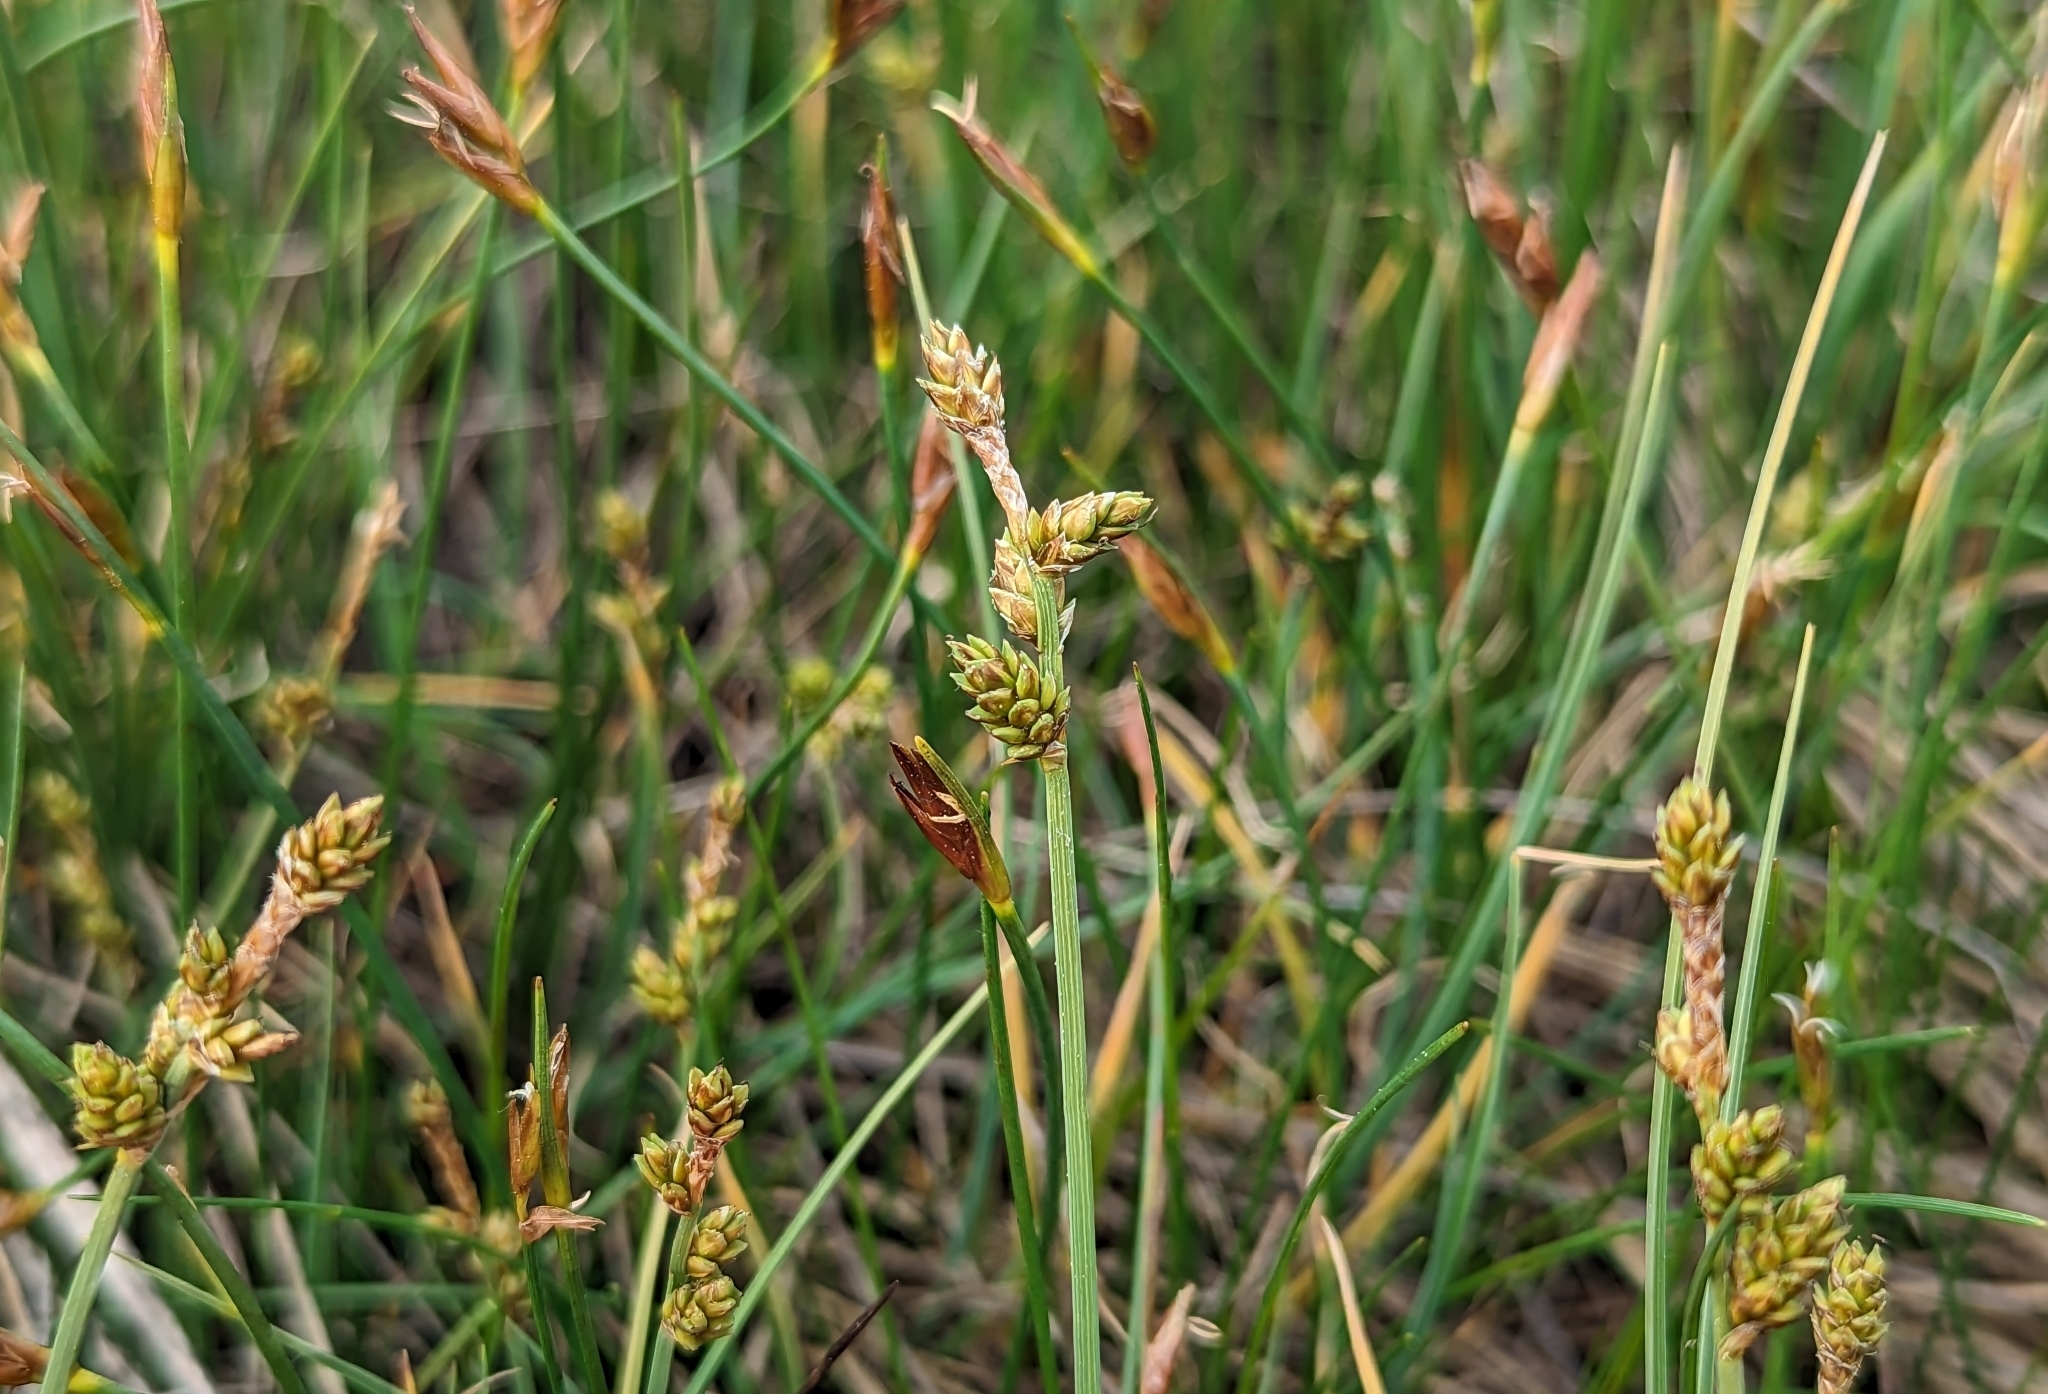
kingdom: Plantae
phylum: Tracheophyta
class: Liliopsida
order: Poales
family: Cyperaceae
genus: Carex
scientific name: Carex mackenziei
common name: Mackenzie's sedge
